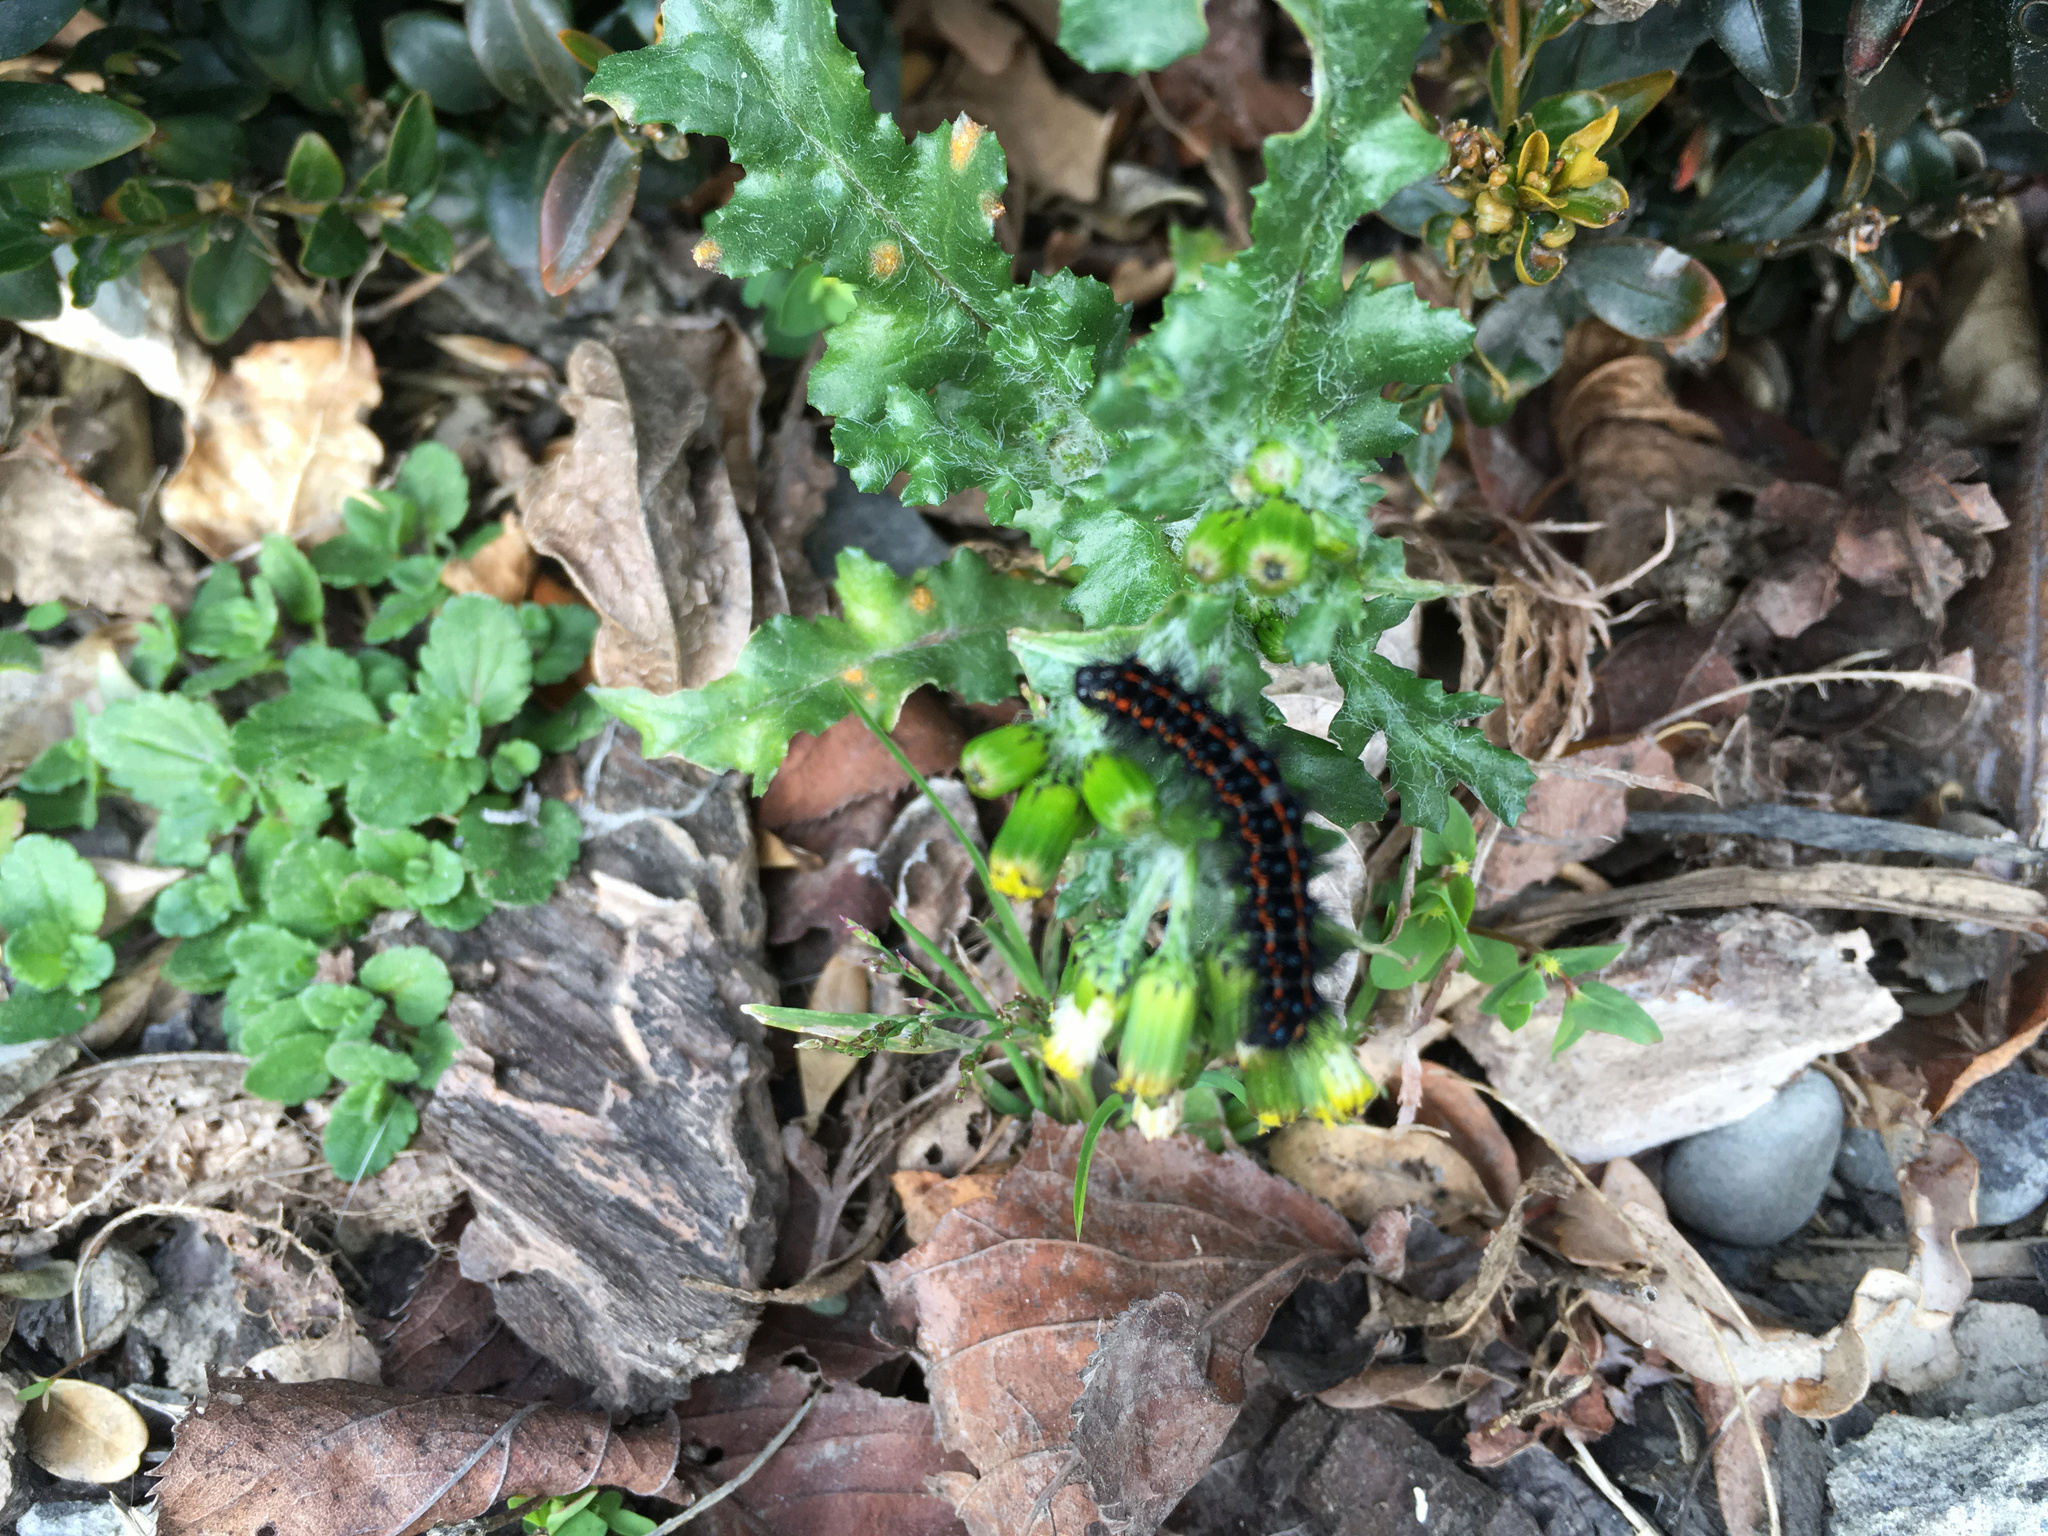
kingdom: Plantae
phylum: Tracheophyta
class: Magnoliopsida
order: Asterales
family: Asteraceae
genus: Senecio
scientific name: Senecio vulgaris
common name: Old-man-in-the-spring
